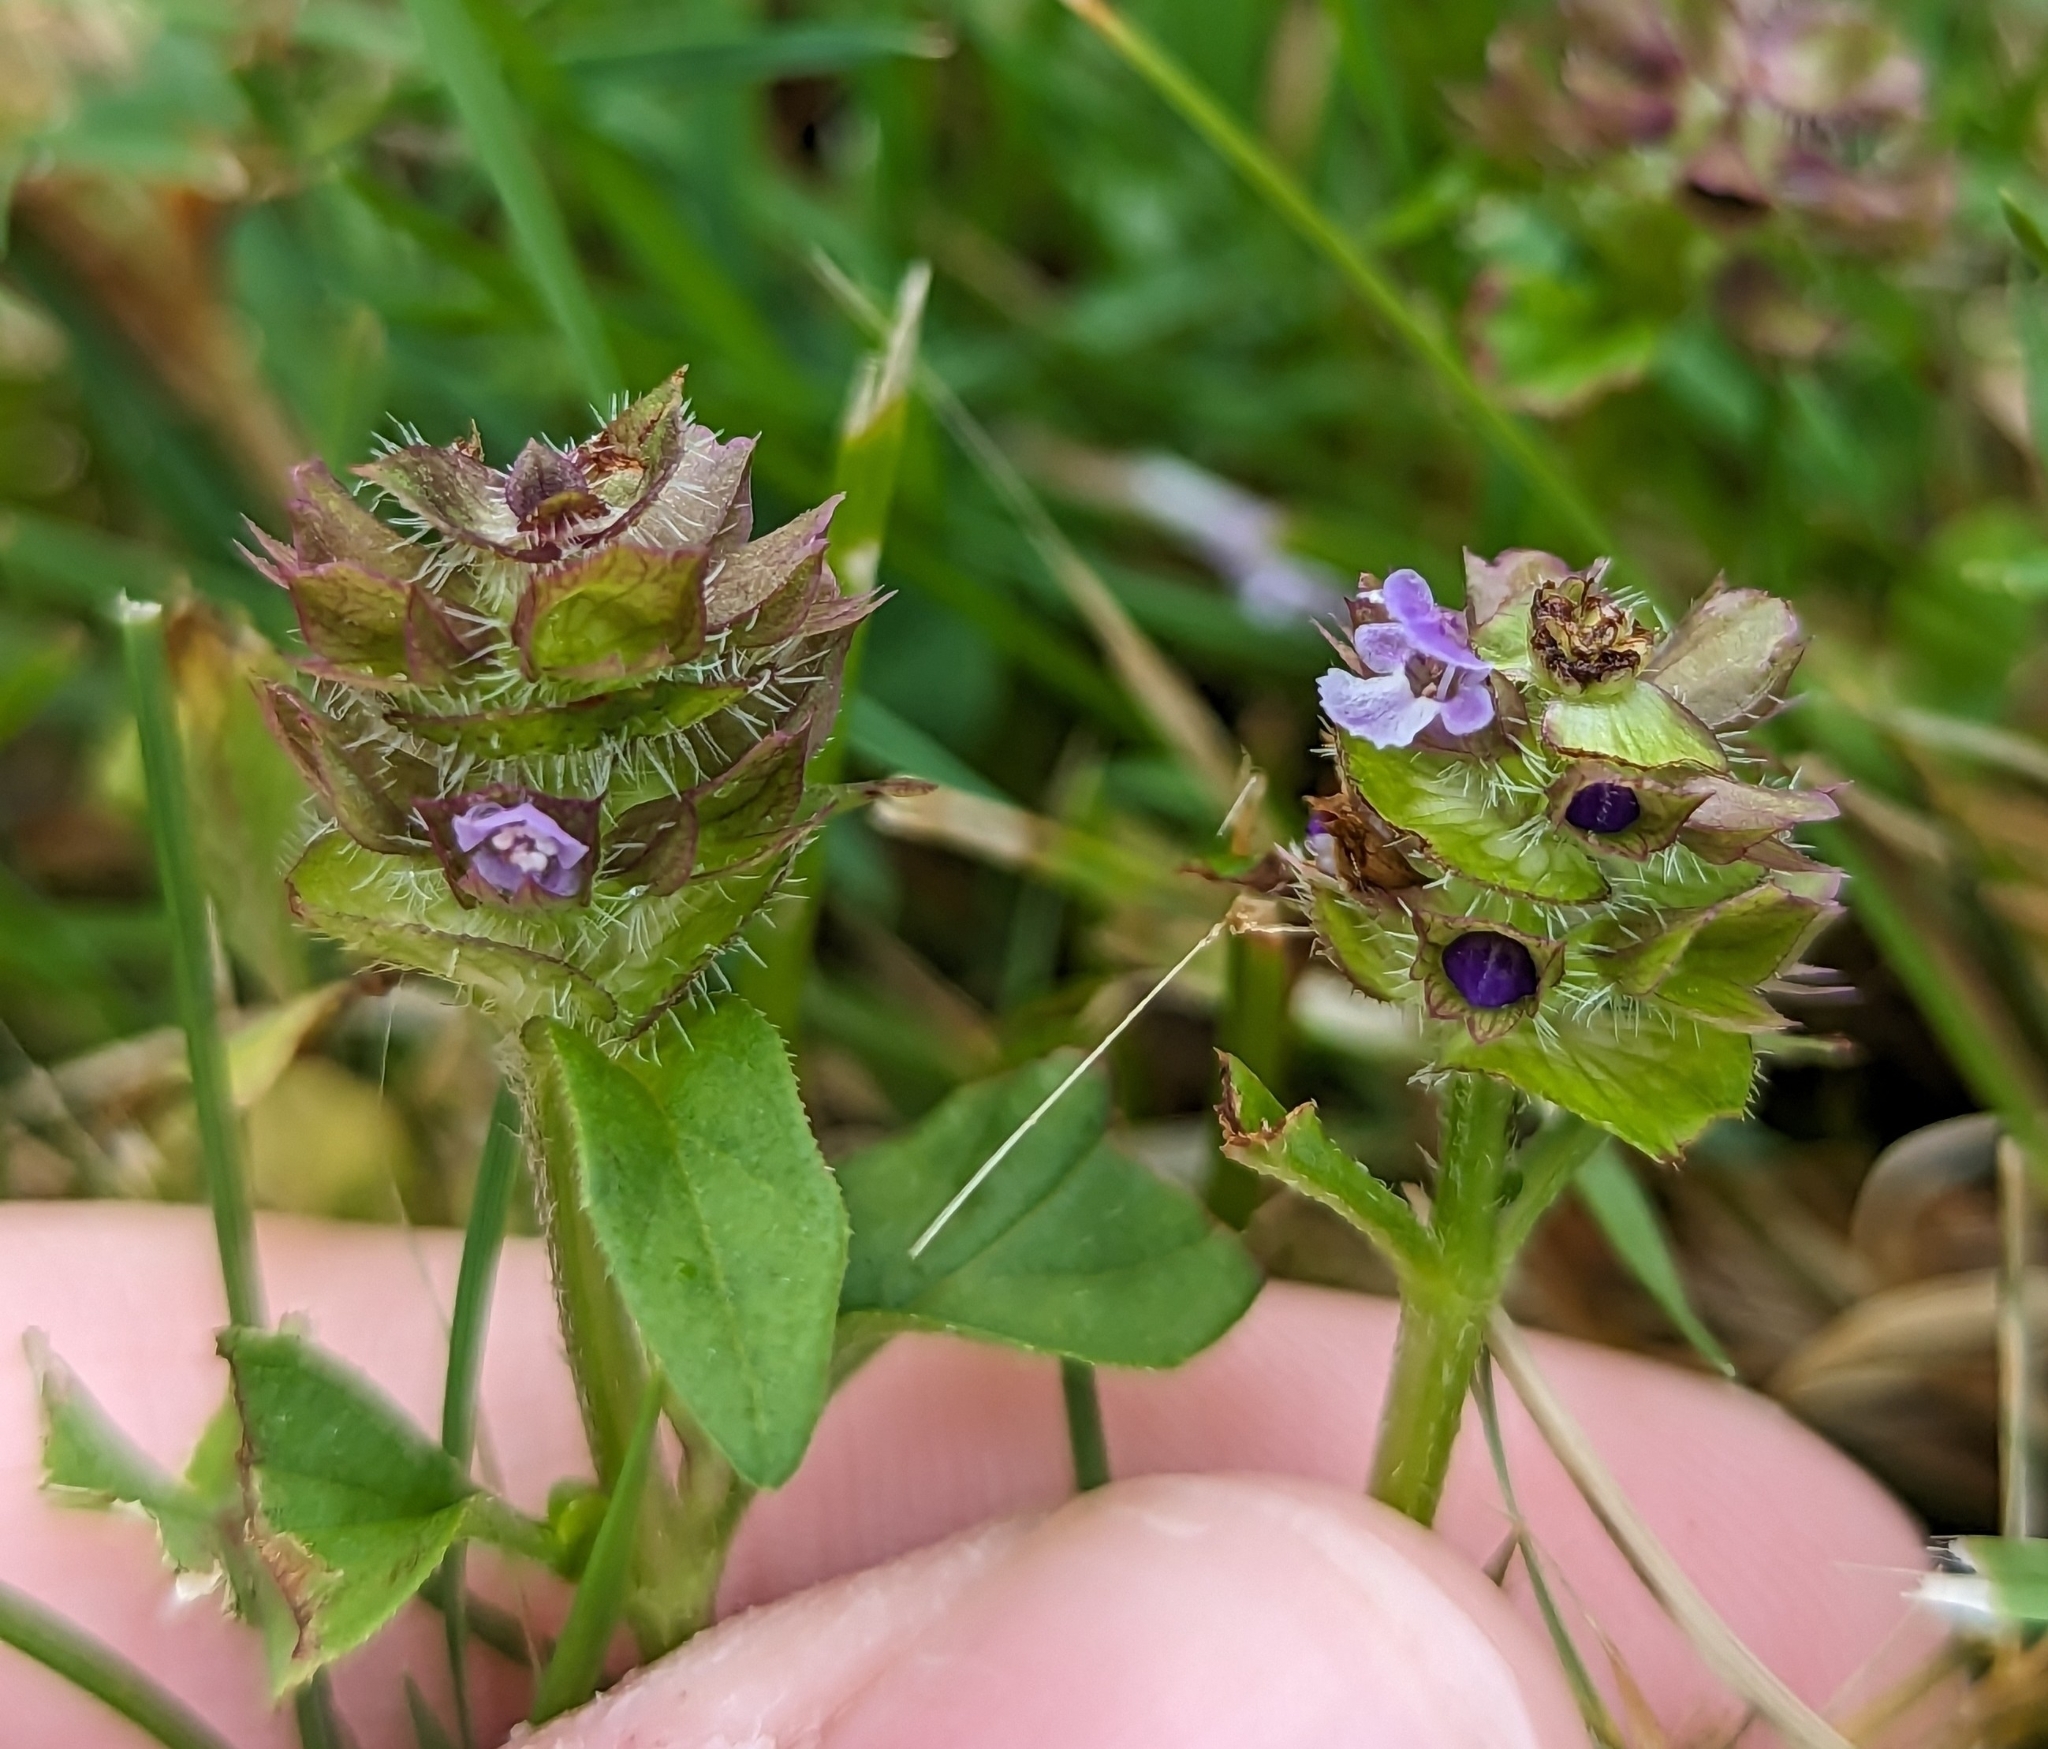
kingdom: Plantae
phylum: Tracheophyta
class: Magnoliopsida
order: Lamiales
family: Lamiaceae
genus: Prunella
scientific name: Prunella vulgaris
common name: Heal-all
